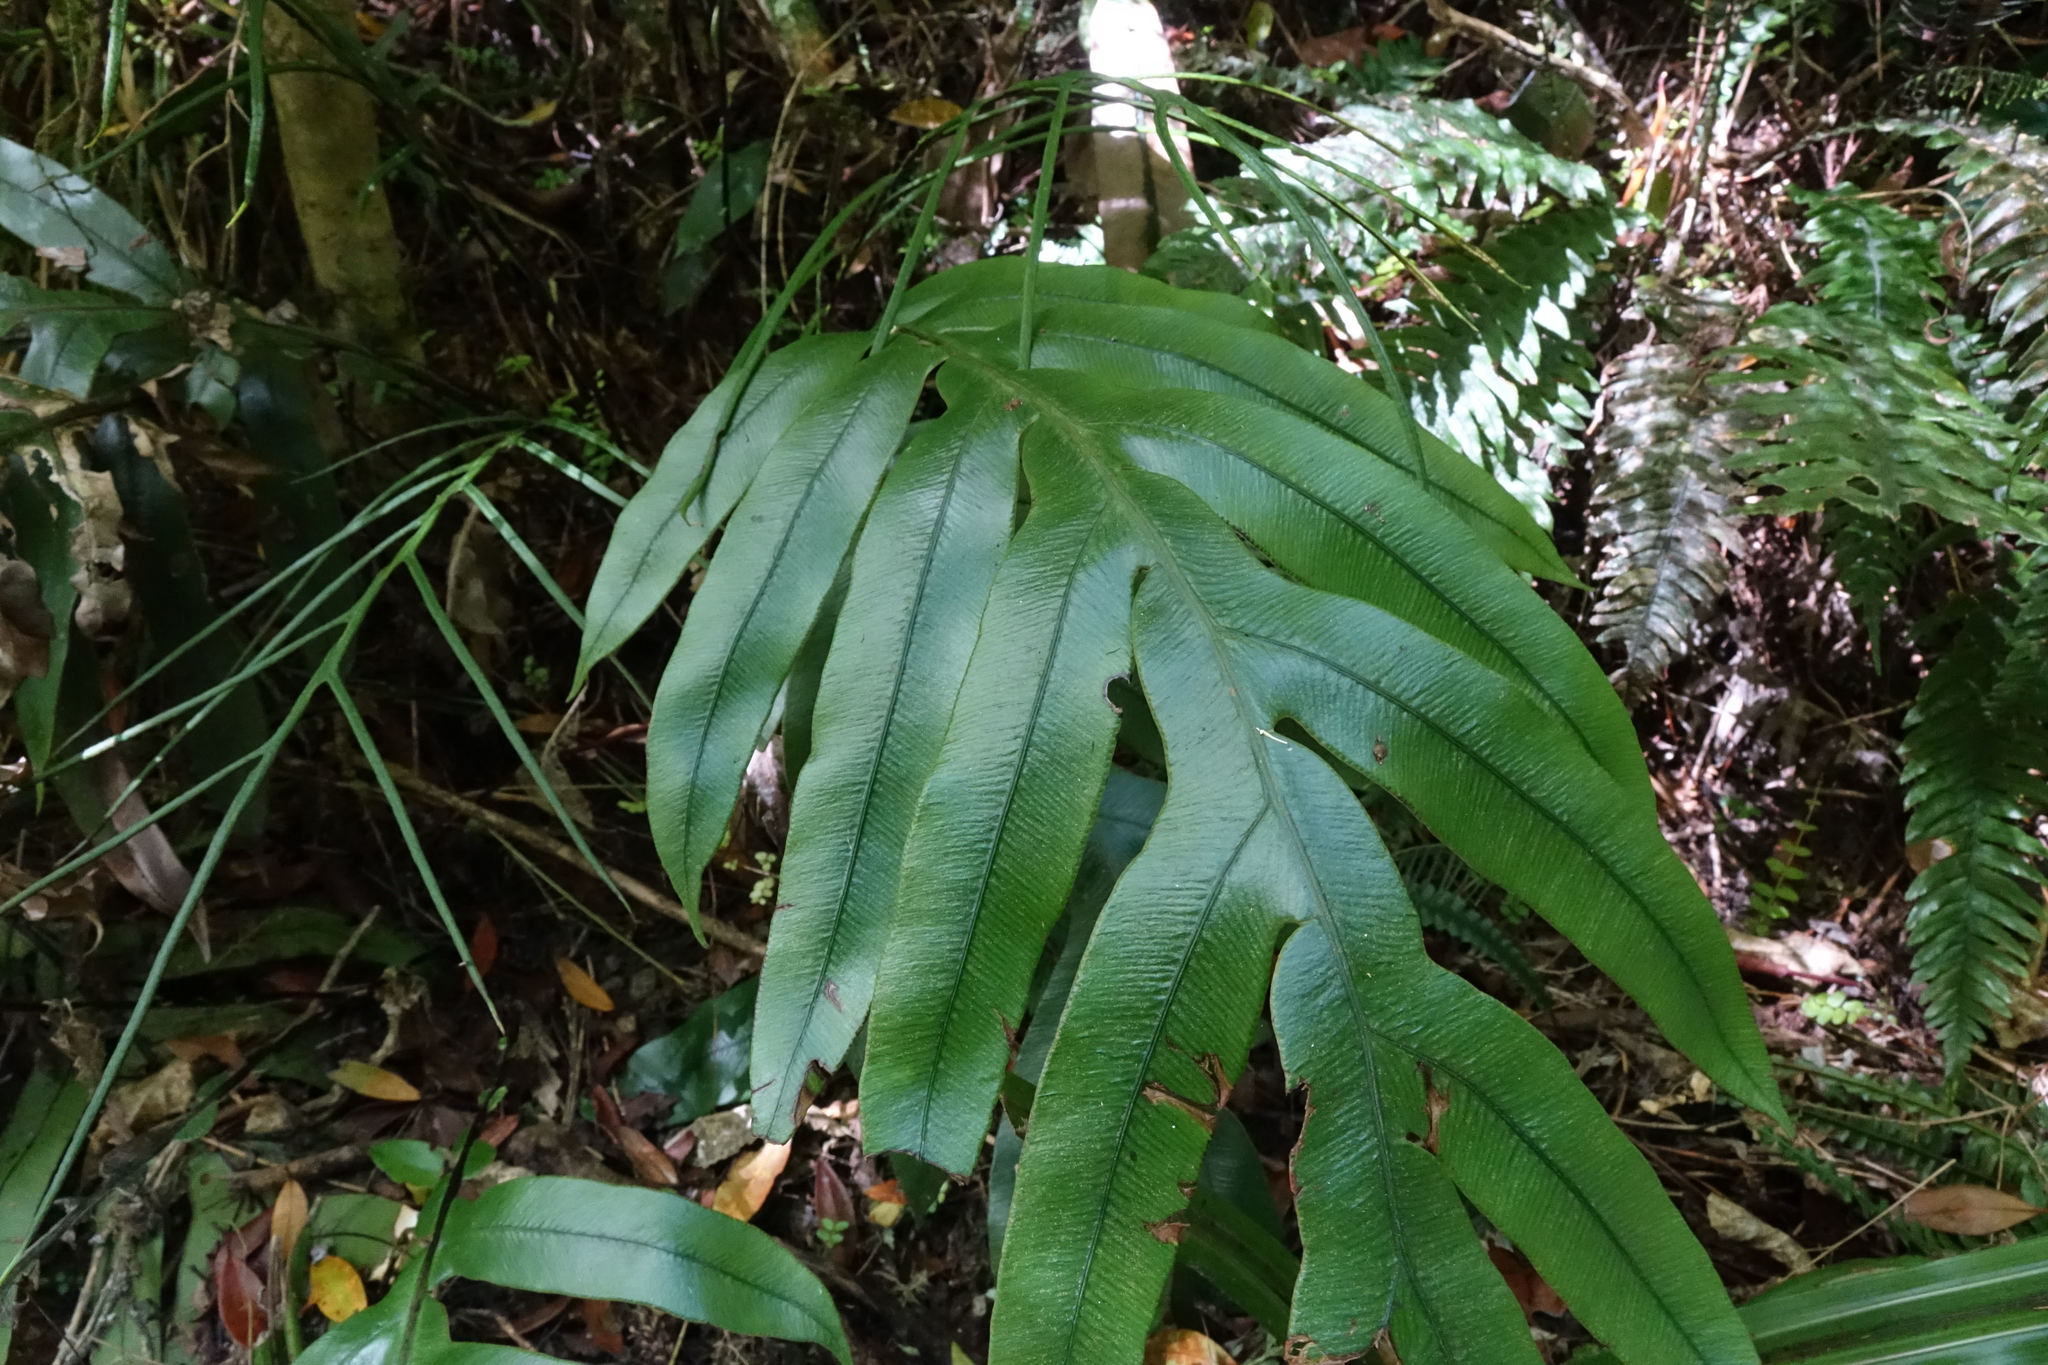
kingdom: Plantae
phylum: Tracheophyta
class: Polypodiopsida
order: Polypodiales
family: Blechnaceae
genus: Austroblechnum
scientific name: Austroblechnum colensoi
